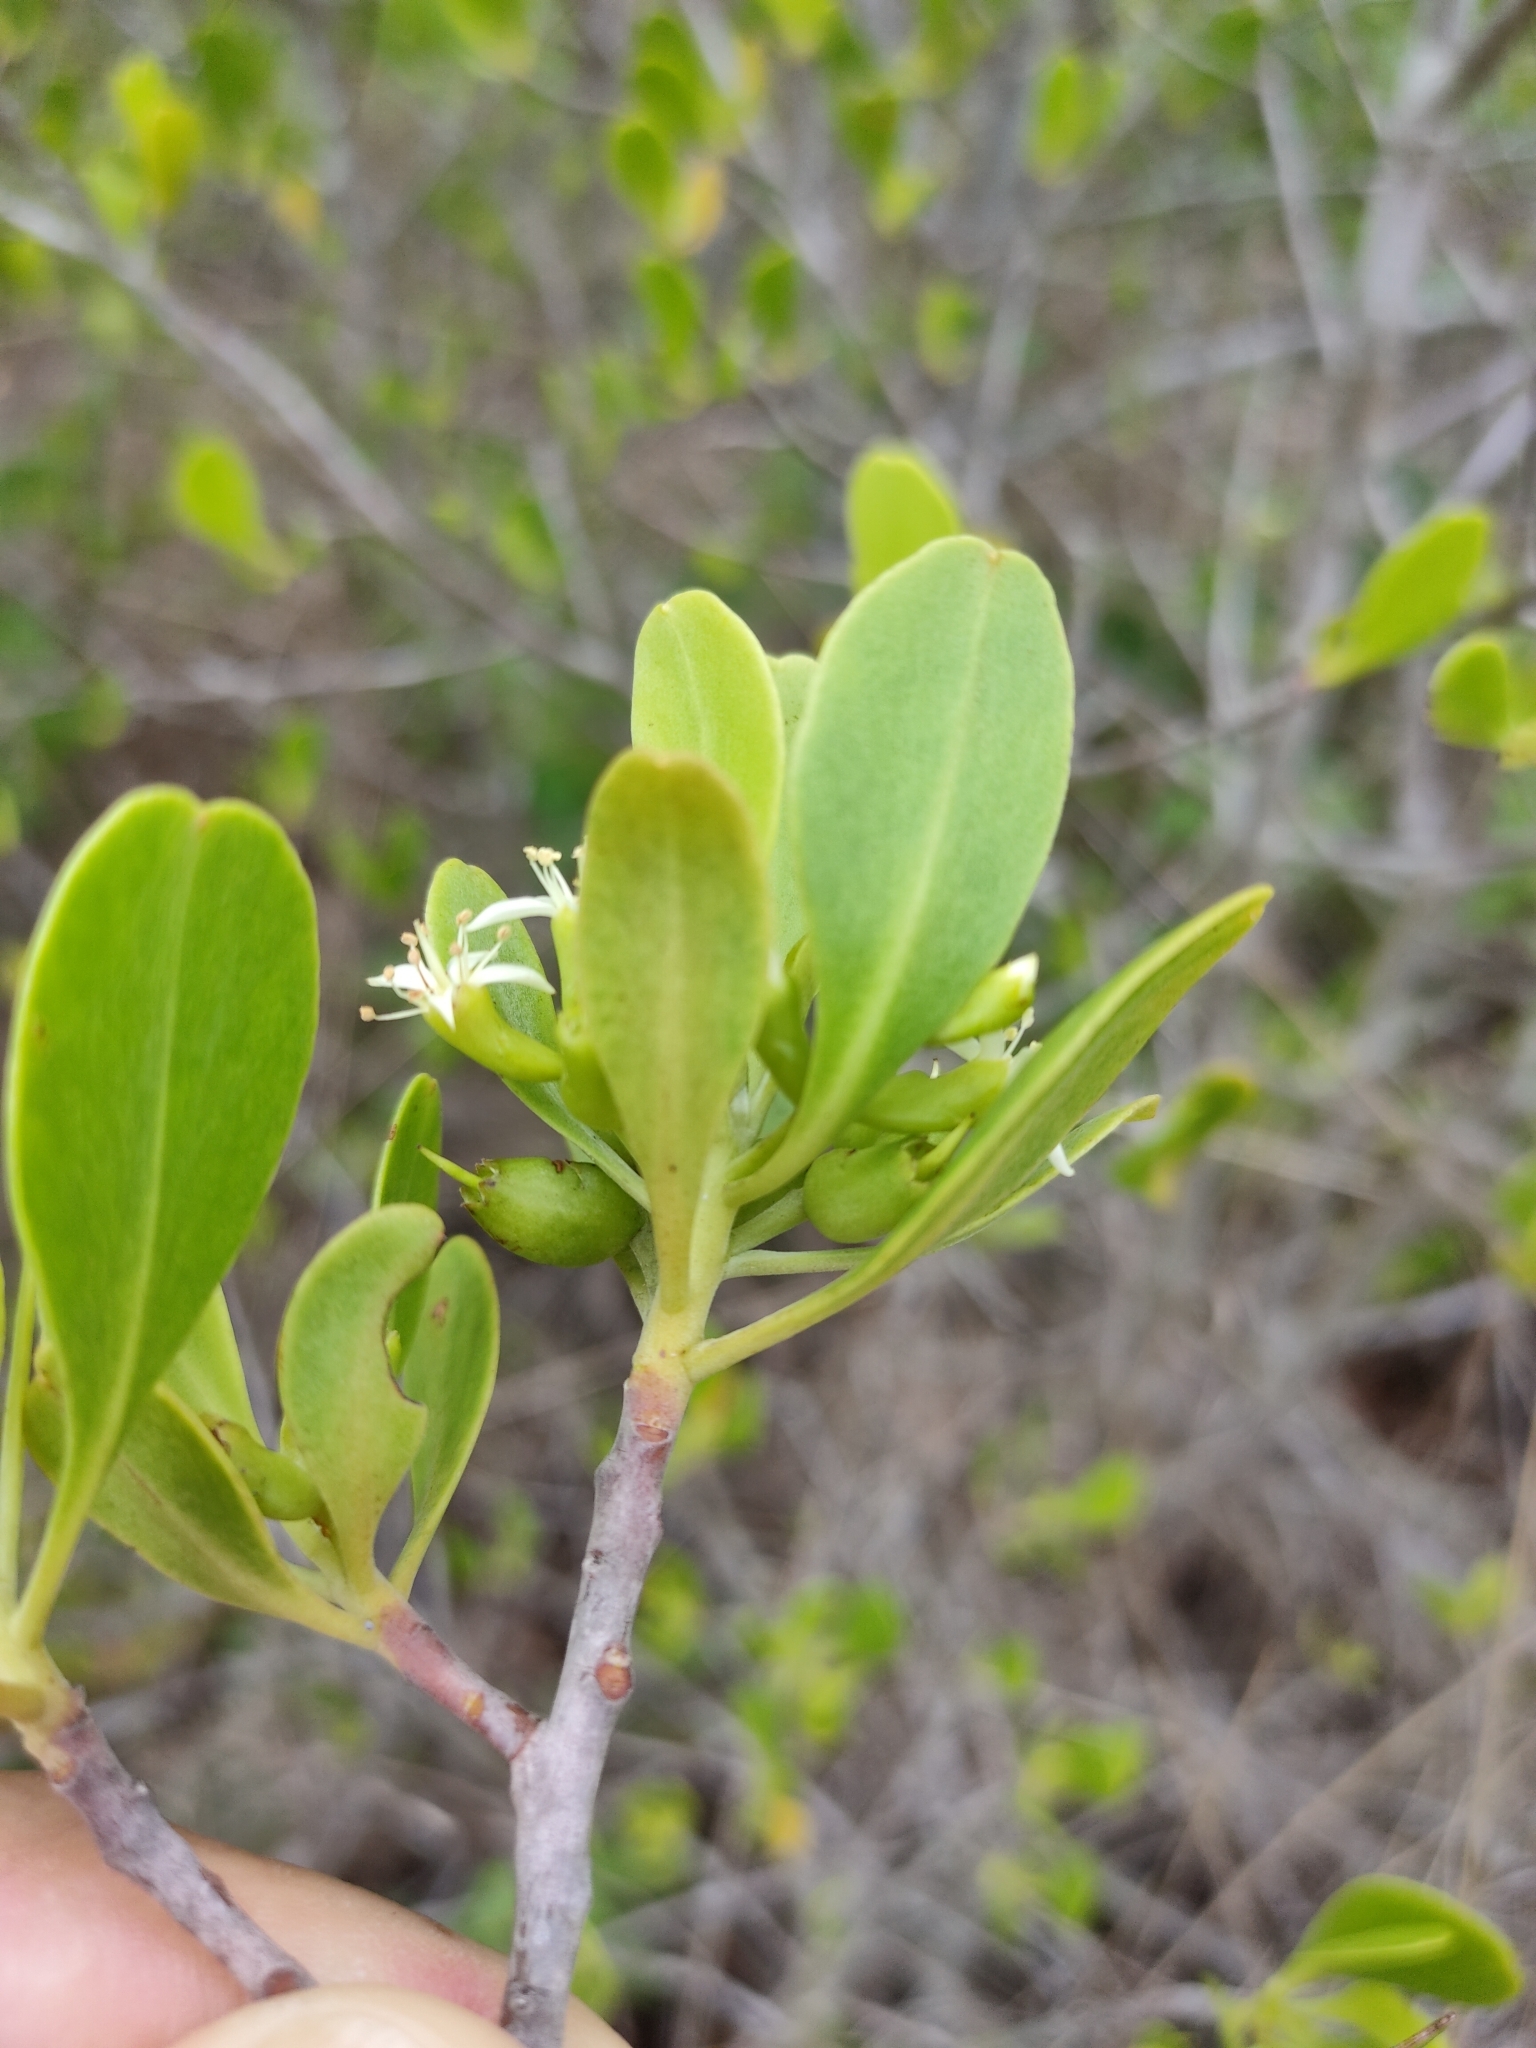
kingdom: Plantae
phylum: Tracheophyta
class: Magnoliopsida
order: Myrtales
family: Combretaceae
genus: Lumnitzera
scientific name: Lumnitzera racemosa
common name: White-flowered black mangrove
